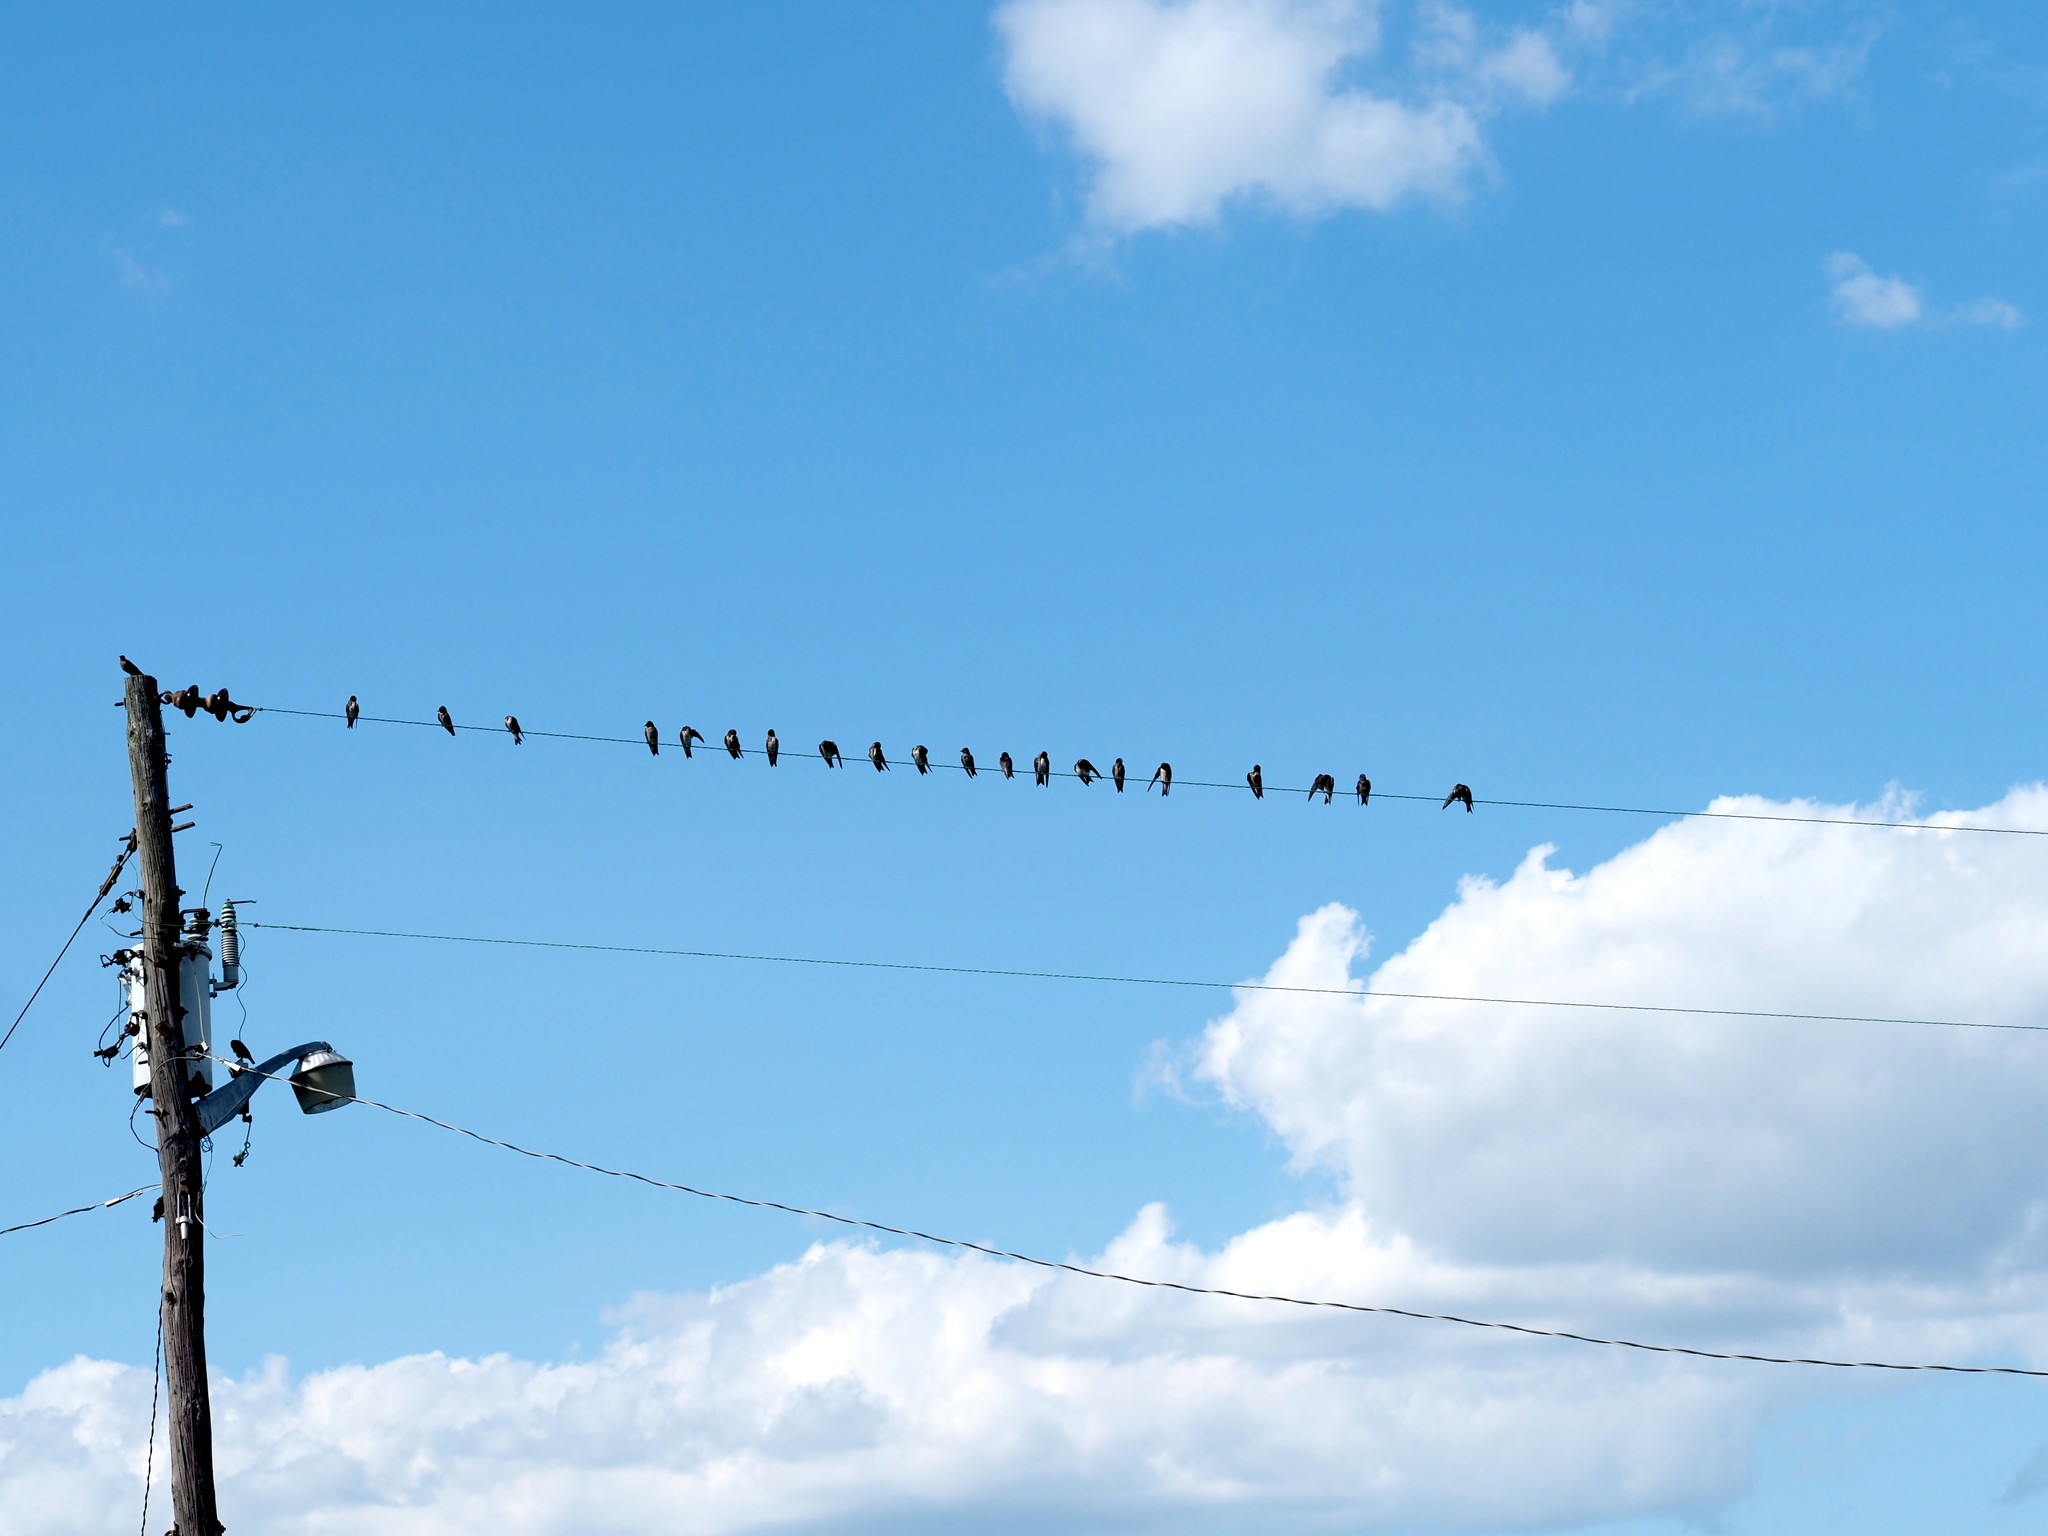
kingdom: Animalia
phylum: Chordata
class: Aves
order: Passeriformes
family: Hirundinidae
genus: Progne
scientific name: Progne subis
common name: Purple martin
